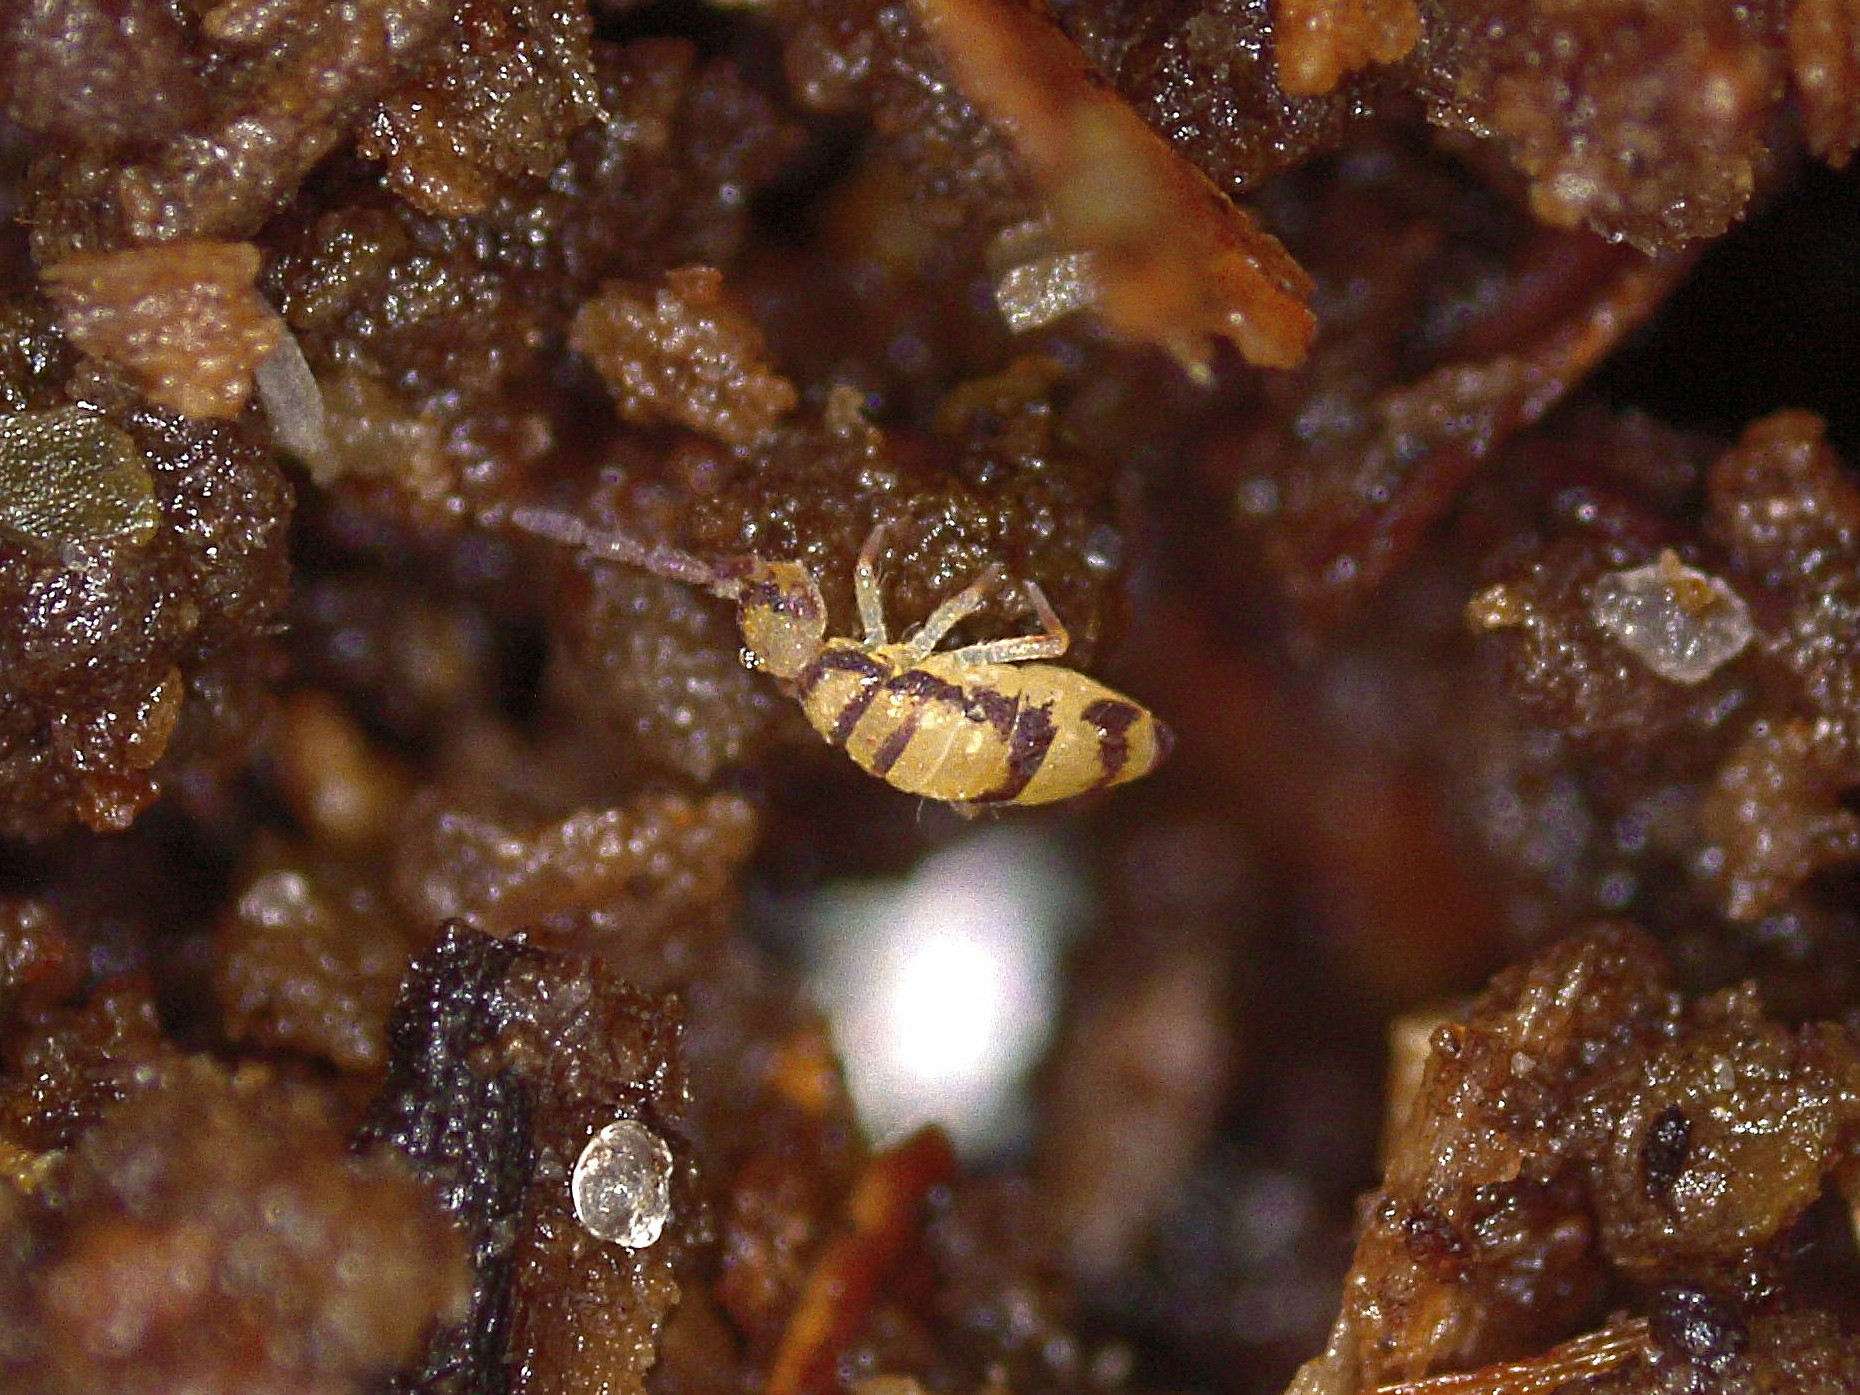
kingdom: Animalia
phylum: Arthropoda
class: Collembola
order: Entomobryomorpha
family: Entomobryidae
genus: Entomobrya
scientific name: Entomobrya corticalis
